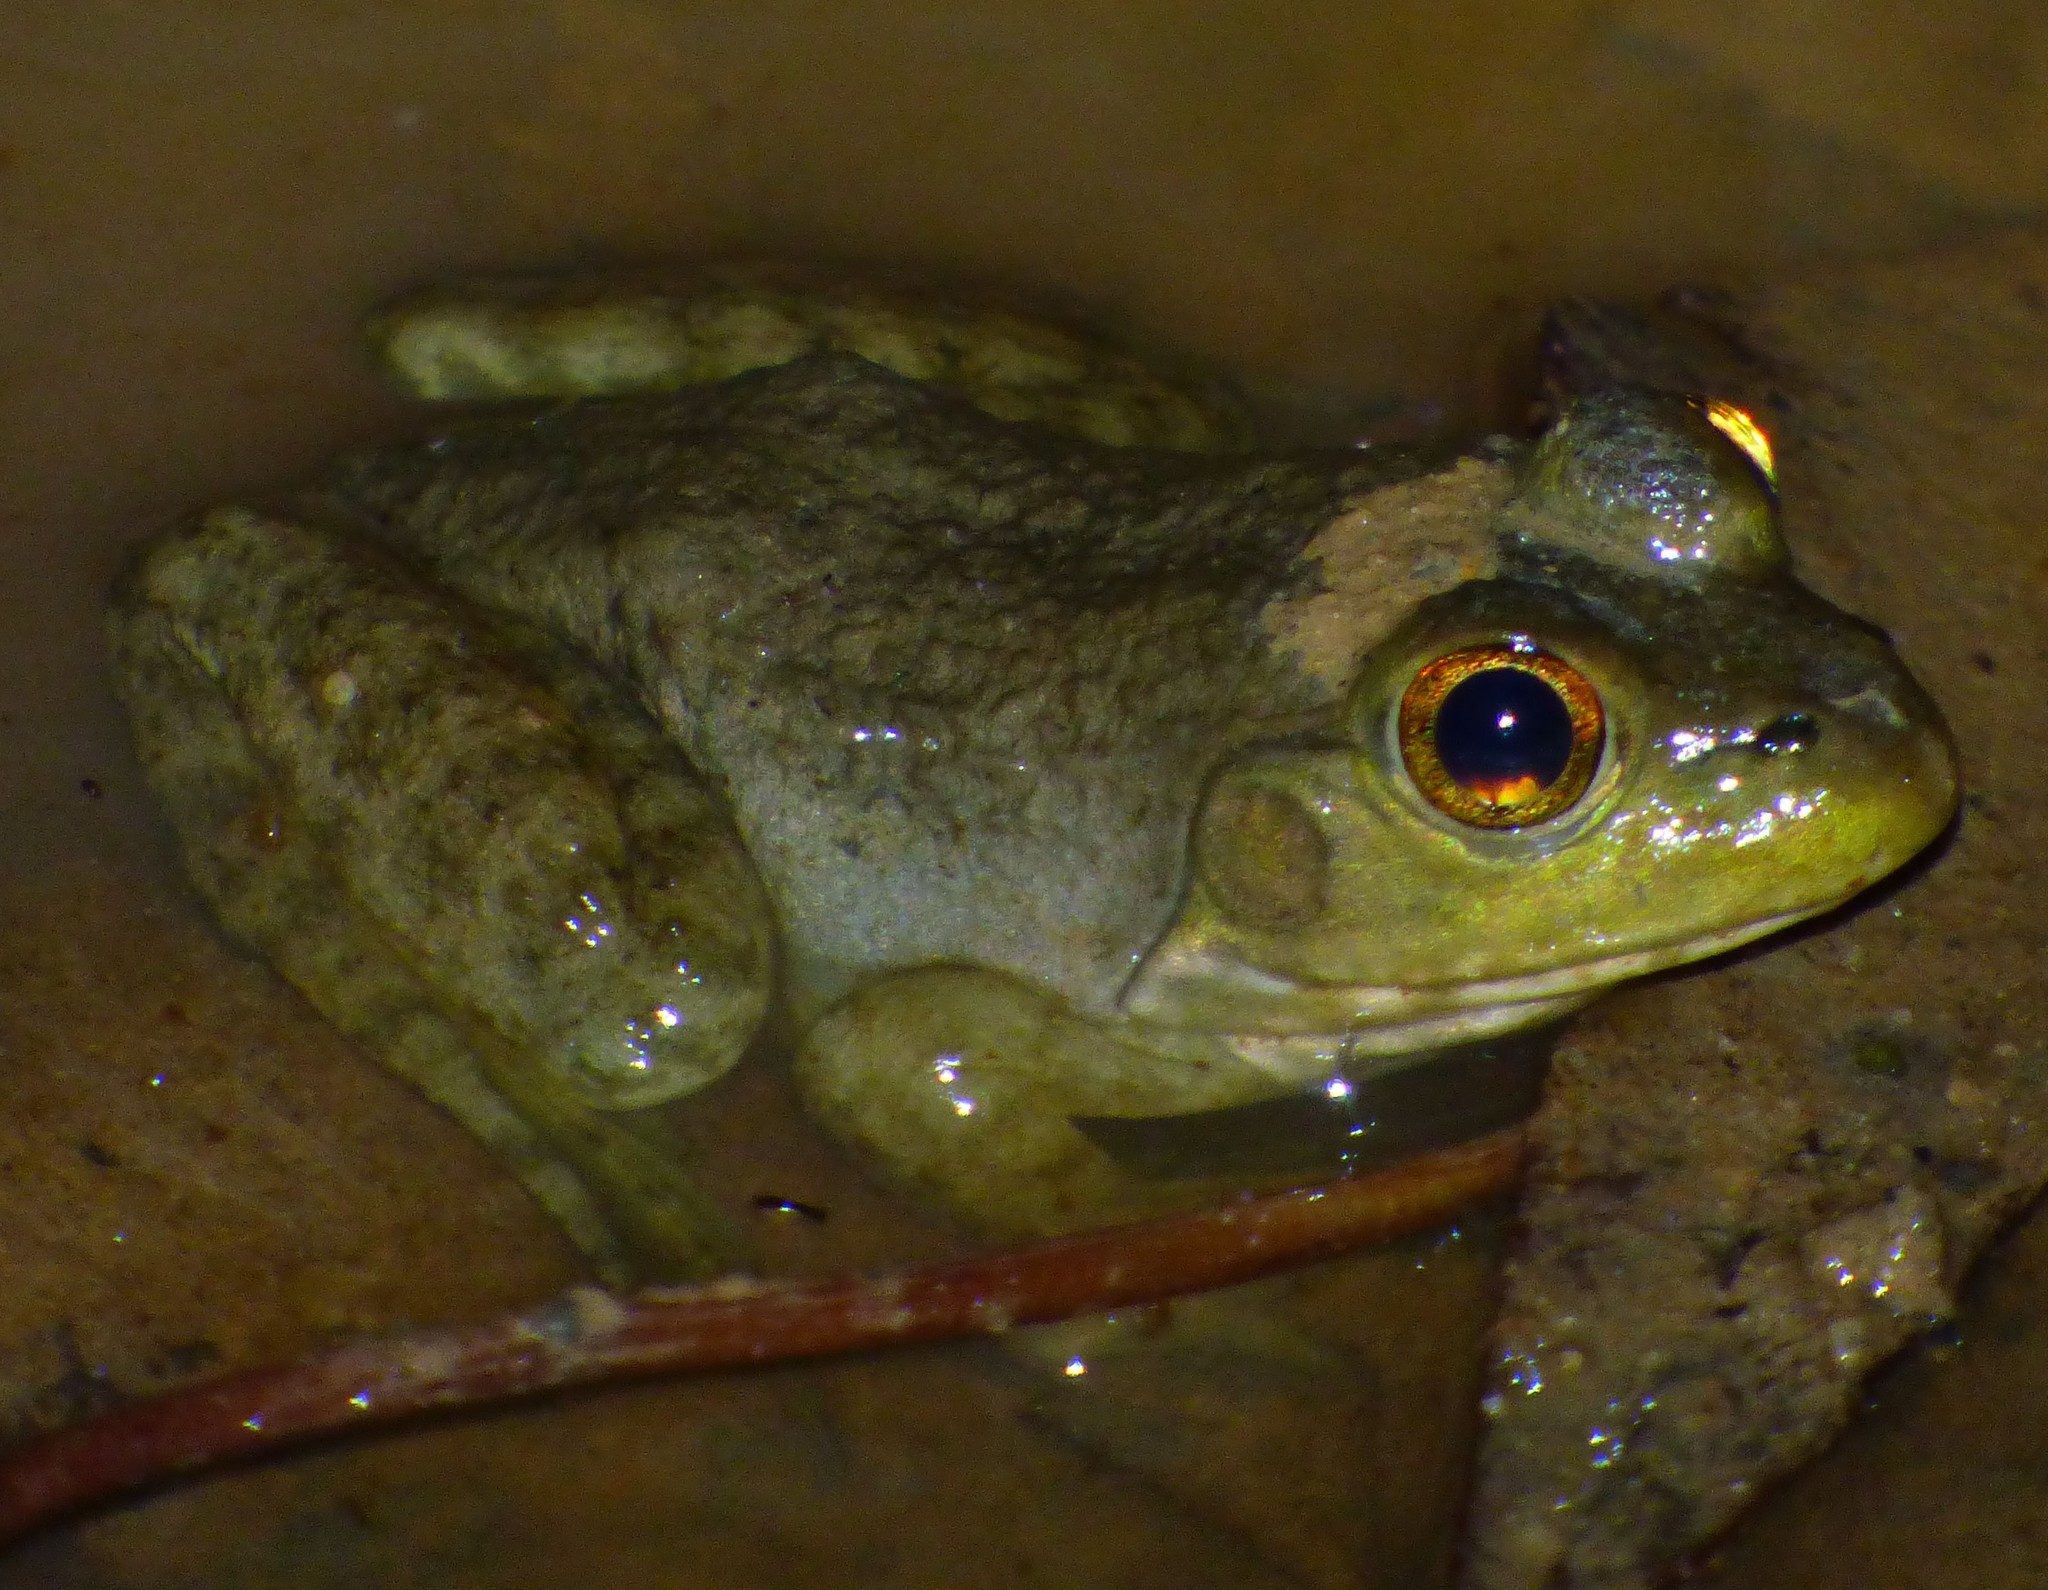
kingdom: Animalia
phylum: Chordata
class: Amphibia
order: Anura
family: Ranidae
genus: Lithobates
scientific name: Lithobates catesbeianus
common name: American bullfrog
